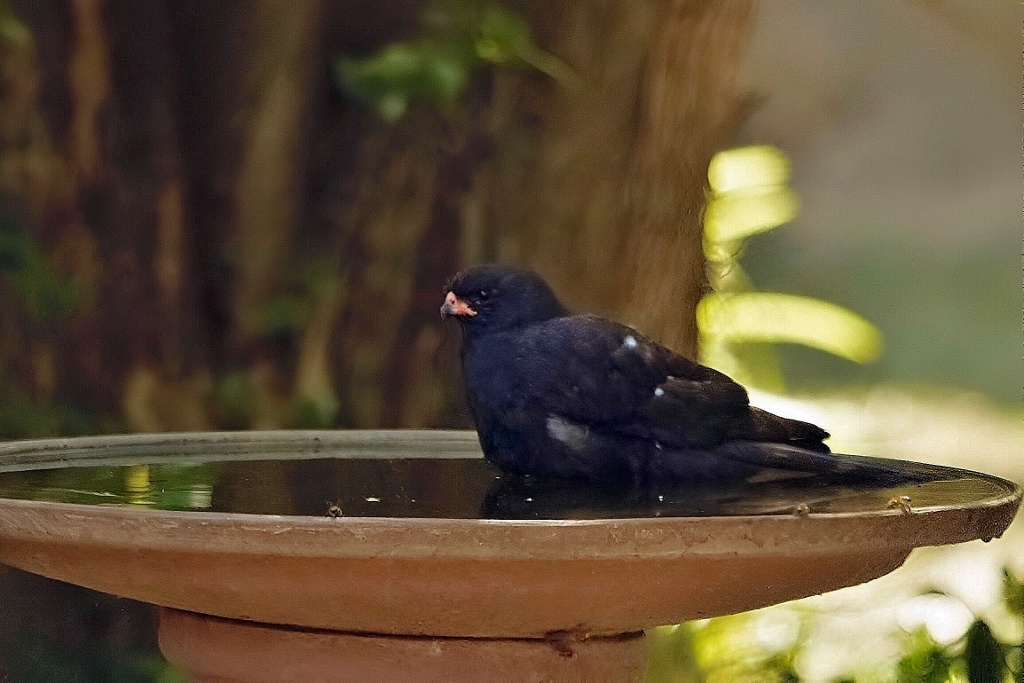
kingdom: Animalia
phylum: Chordata
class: Aves
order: Accipitriformes
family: Accipitridae
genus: Micronisus
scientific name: Micronisus gabar
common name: Gabar goshawk
